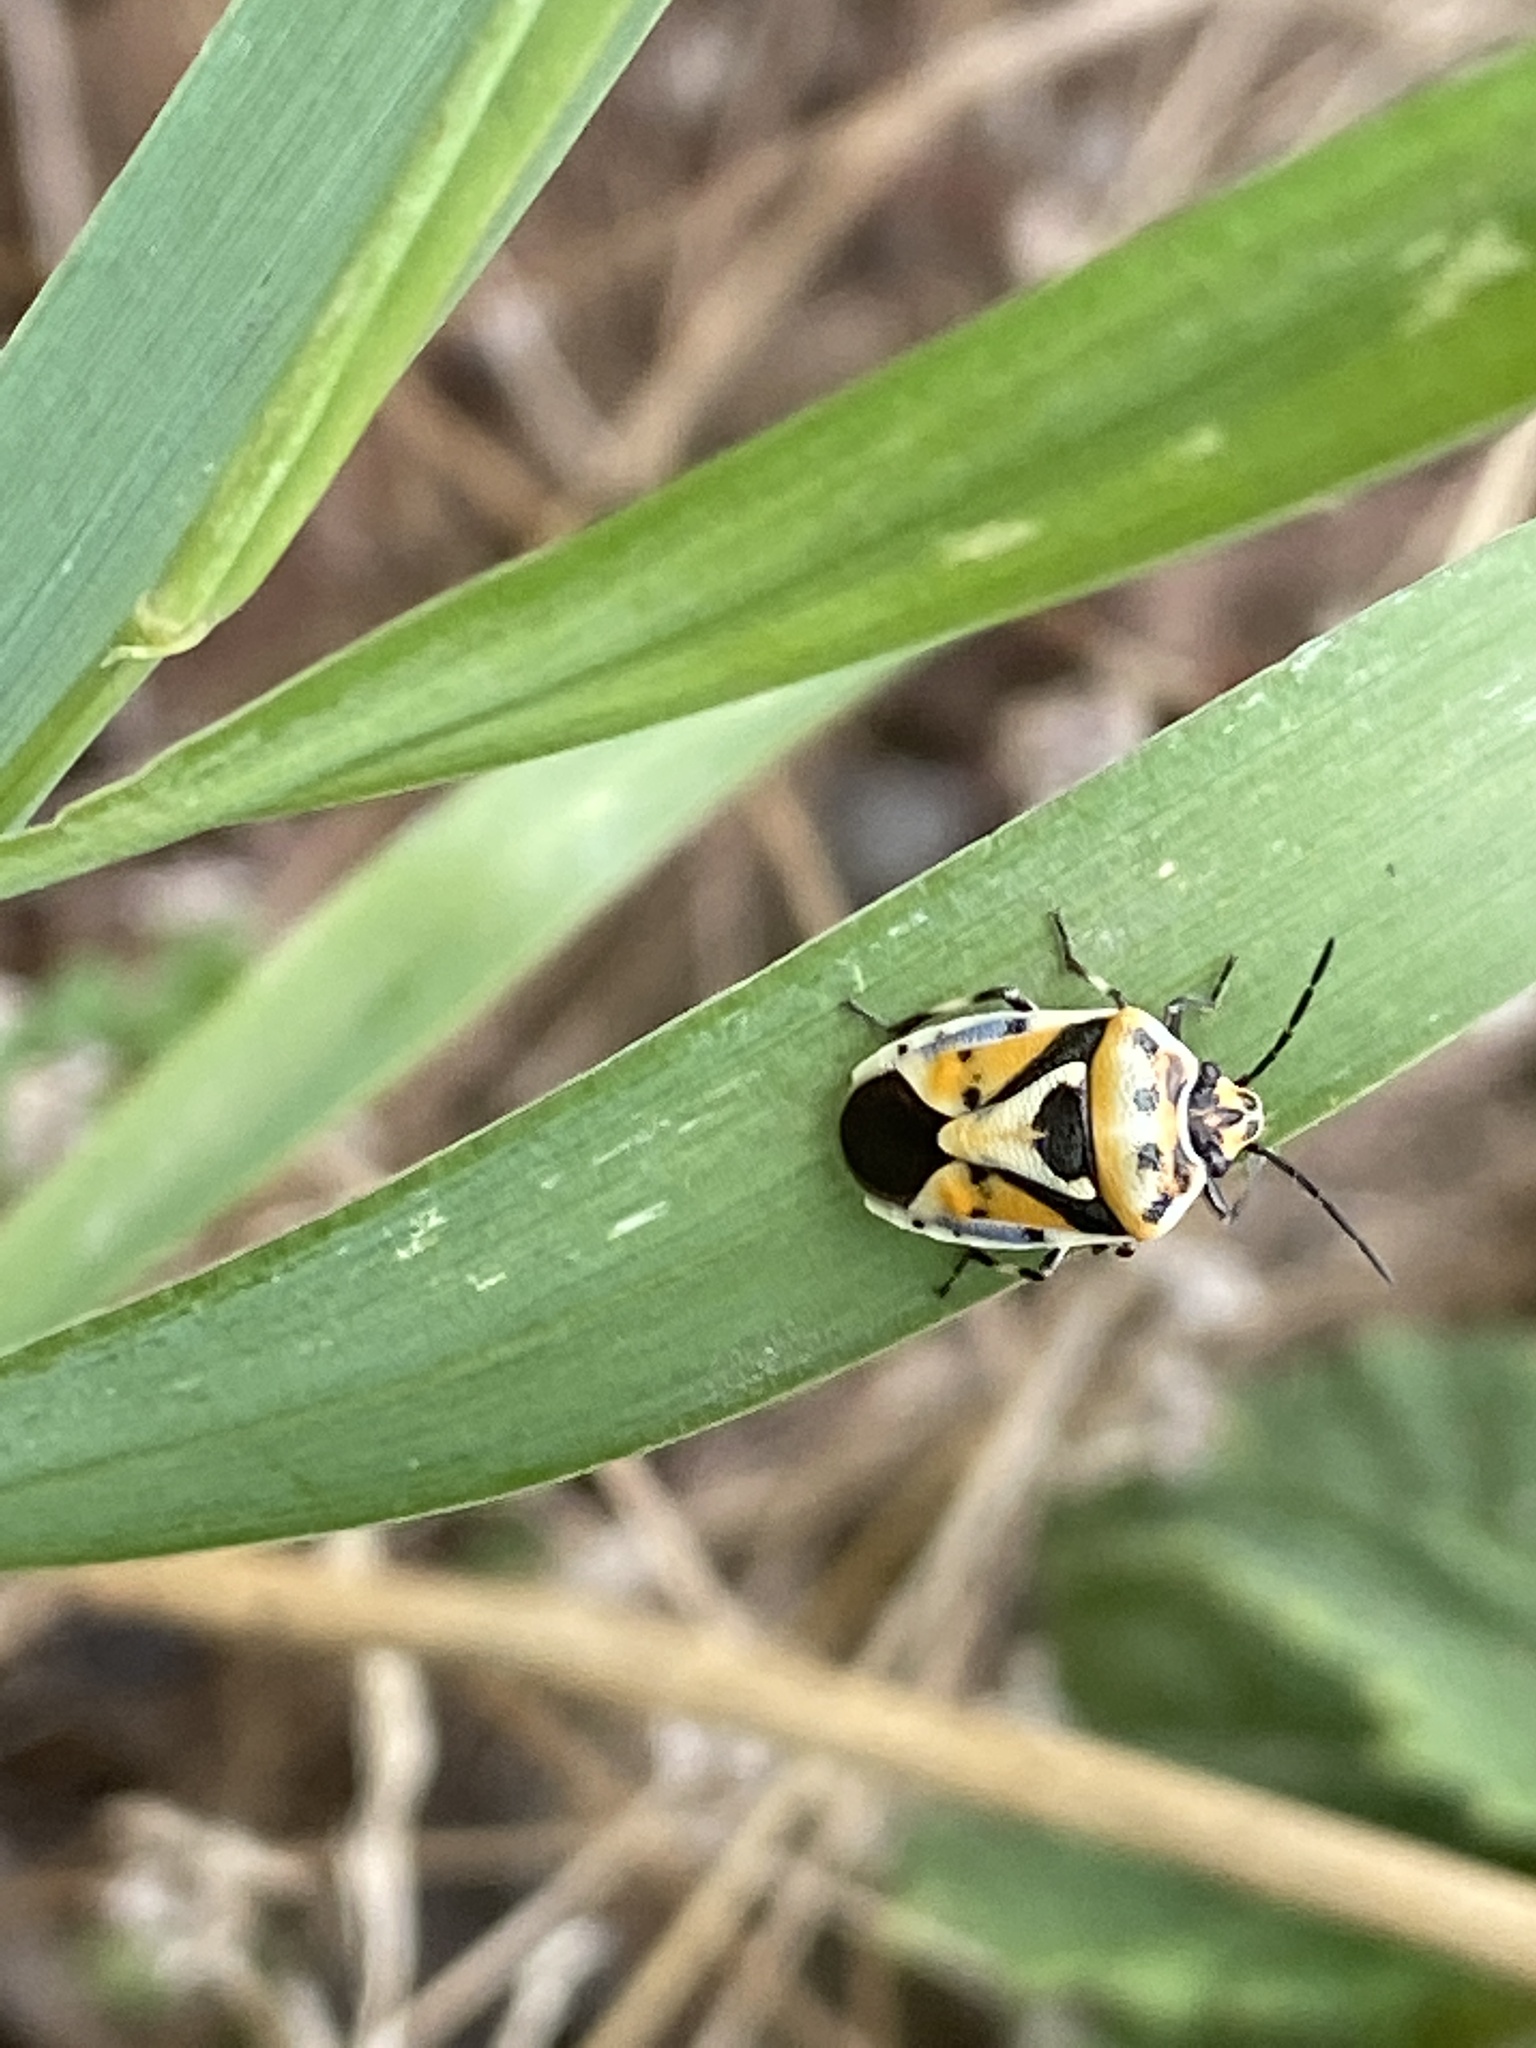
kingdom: Animalia
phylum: Arthropoda
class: Insecta
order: Hemiptera
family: Pentatomidae
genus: Eurydema
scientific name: Eurydema ornata
